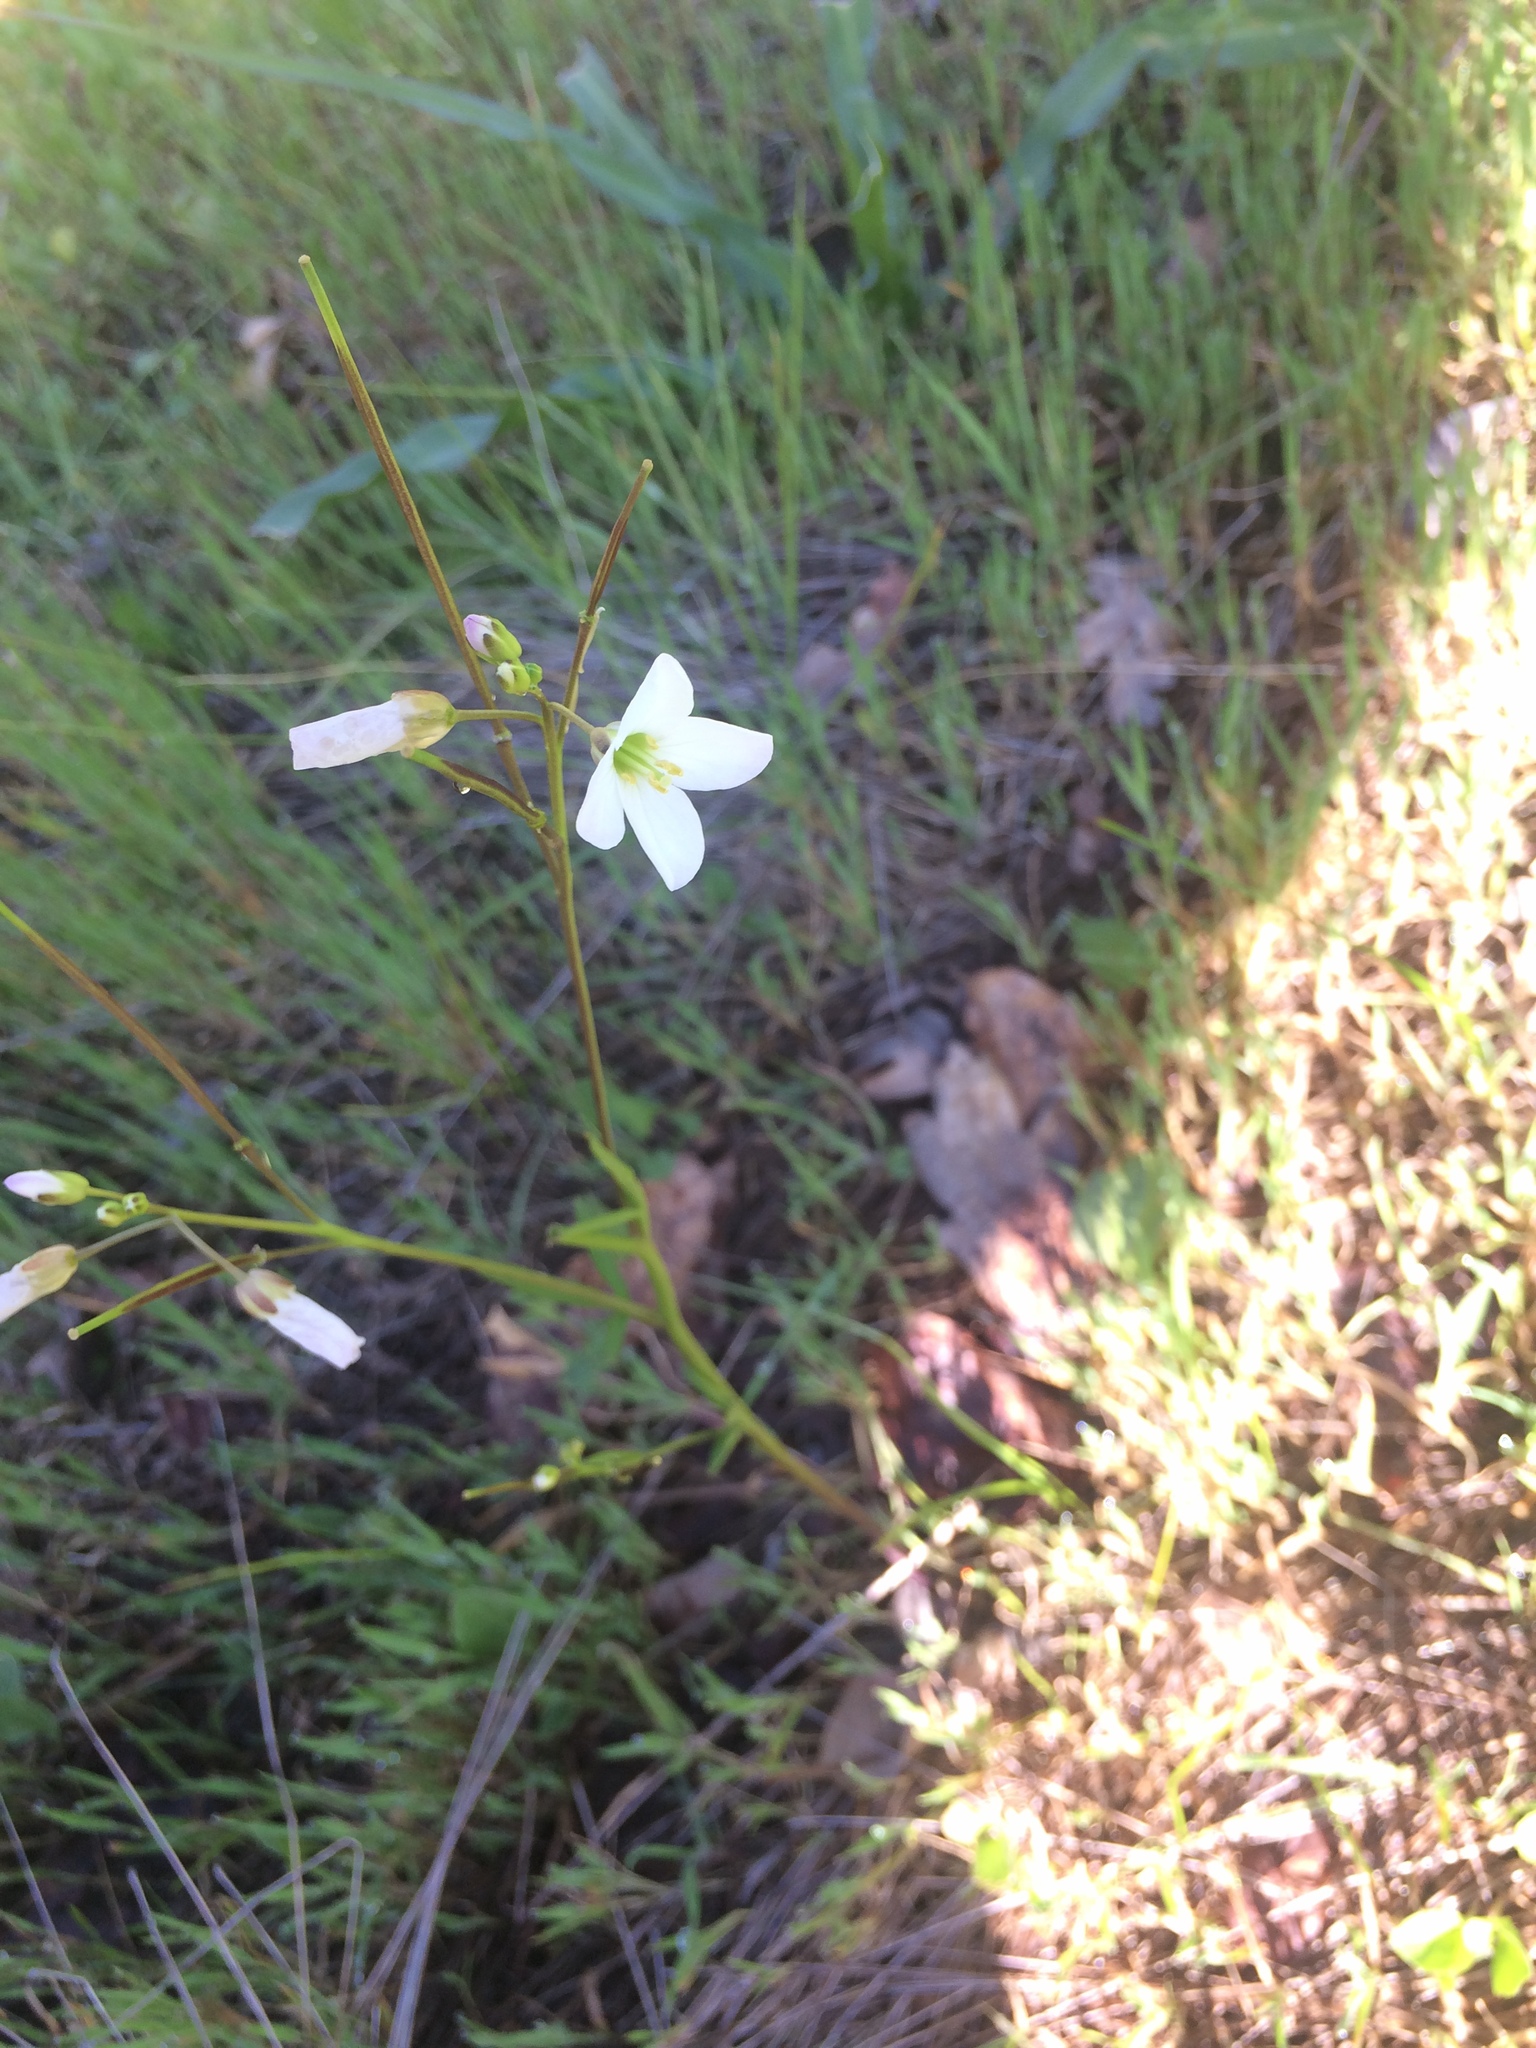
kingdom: Plantae
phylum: Tracheophyta
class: Magnoliopsida
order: Brassicales
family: Brassicaceae
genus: Cardamine
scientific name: Cardamine californica
